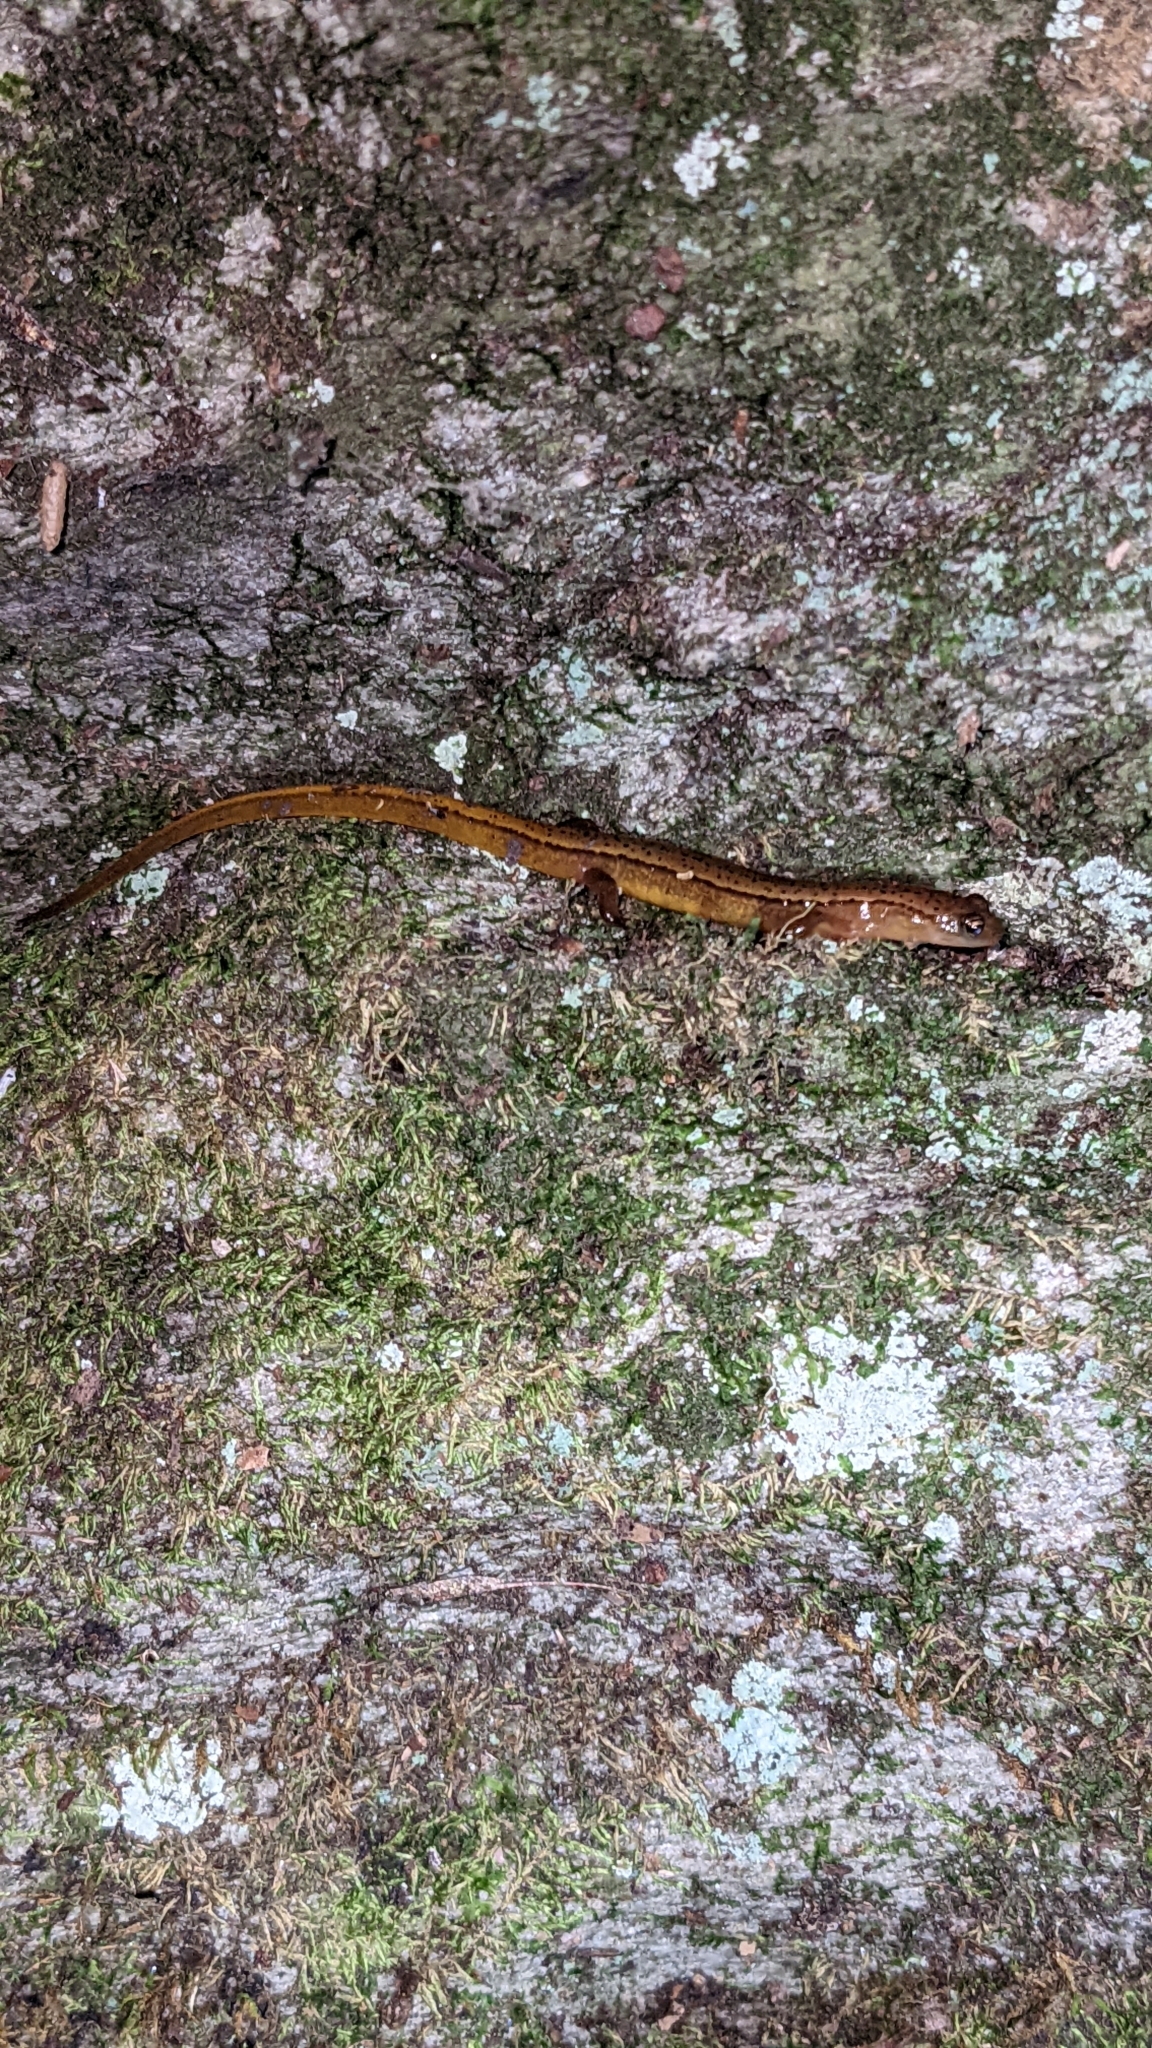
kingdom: Animalia
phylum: Chordata
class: Amphibia
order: Caudata
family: Plethodontidae
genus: Eurycea
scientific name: Eurycea wilderae
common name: Blue ridge two-lined salamander
